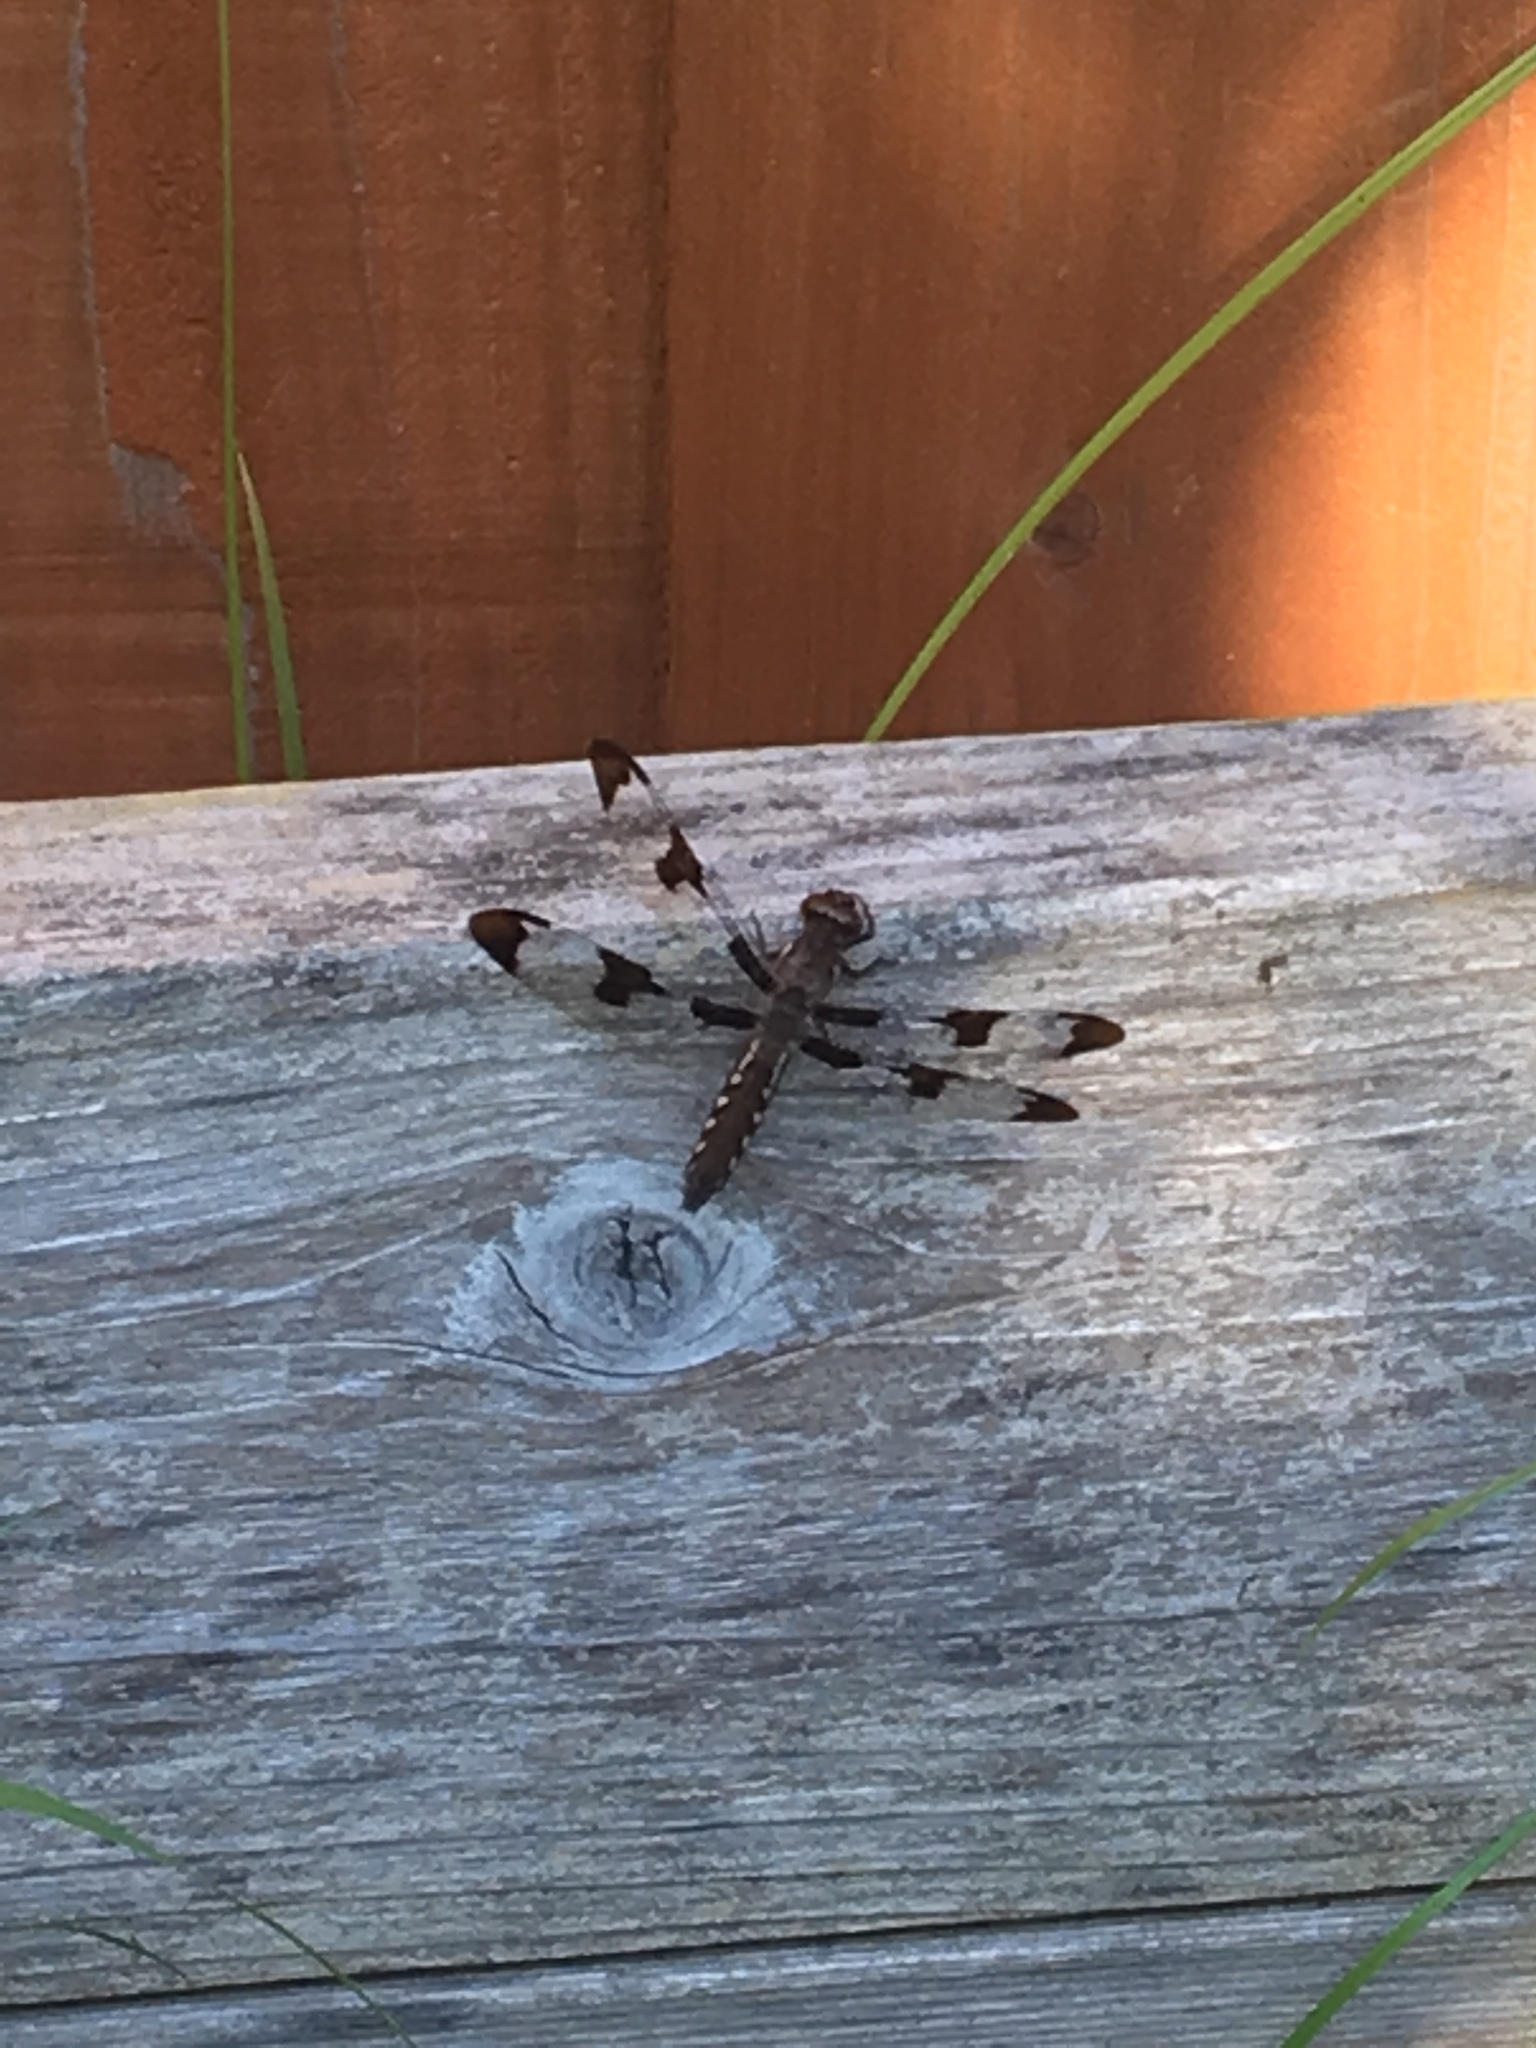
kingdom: Animalia
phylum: Arthropoda
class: Insecta
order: Odonata
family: Libellulidae
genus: Plathemis
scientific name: Plathemis lydia
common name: Common whitetail
